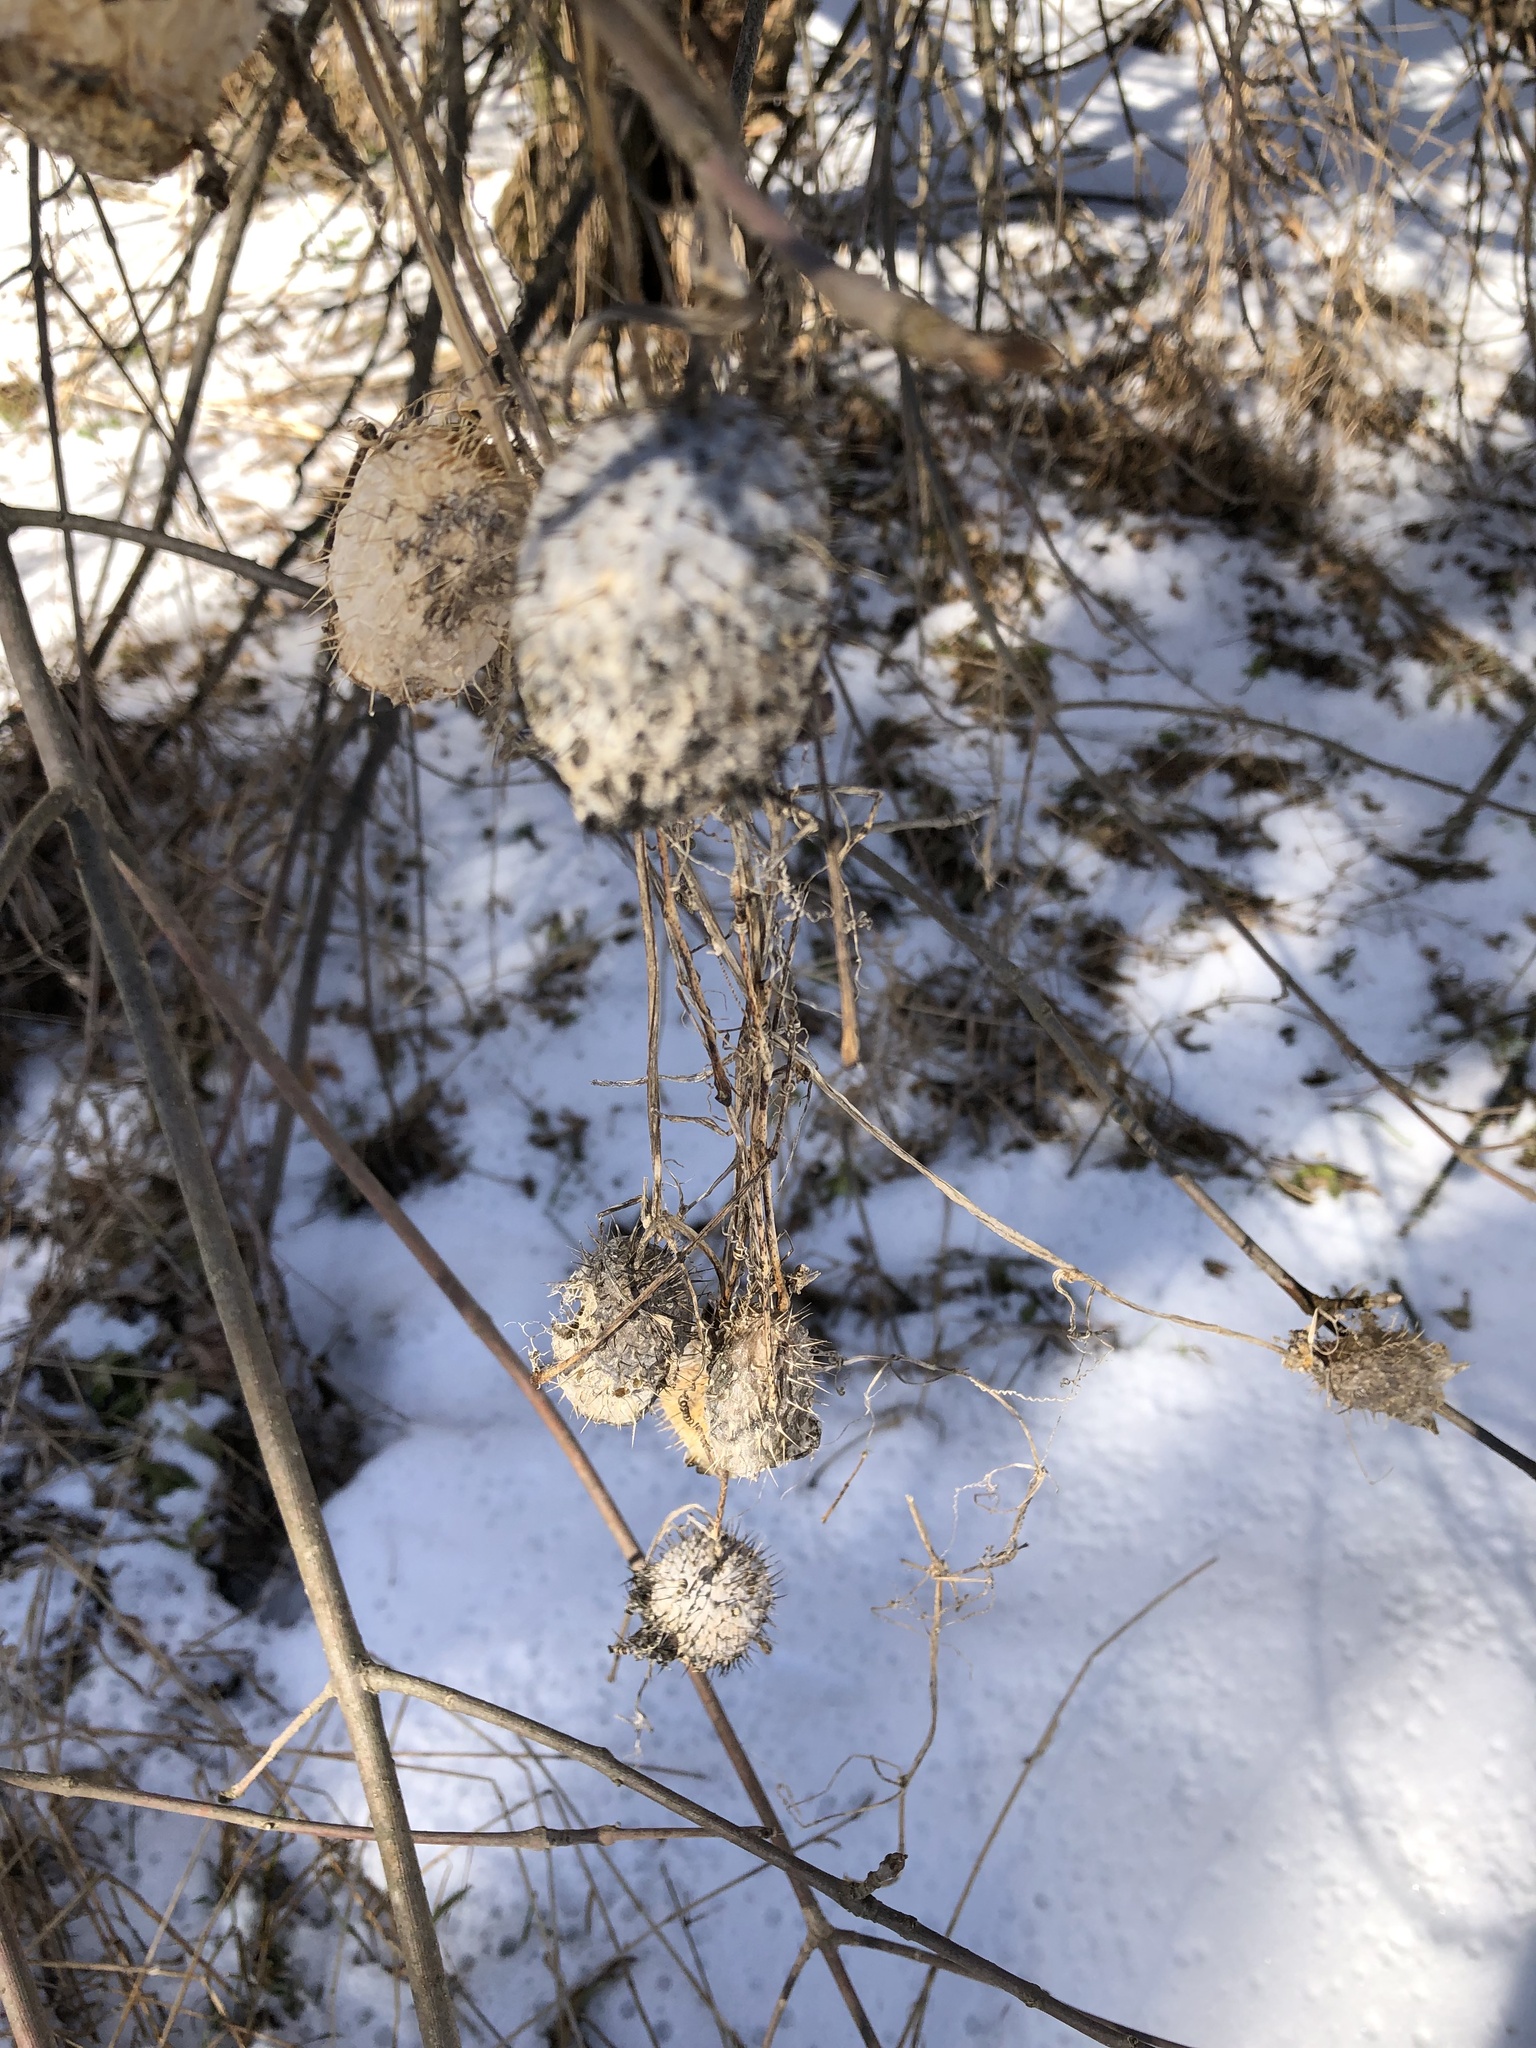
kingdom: Plantae
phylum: Tracheophyta
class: Magnoliopsida
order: Cucurbitales
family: Cucurbitaceae
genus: Echinocystis
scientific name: Echinocystis lobata
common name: Wild cucumber
